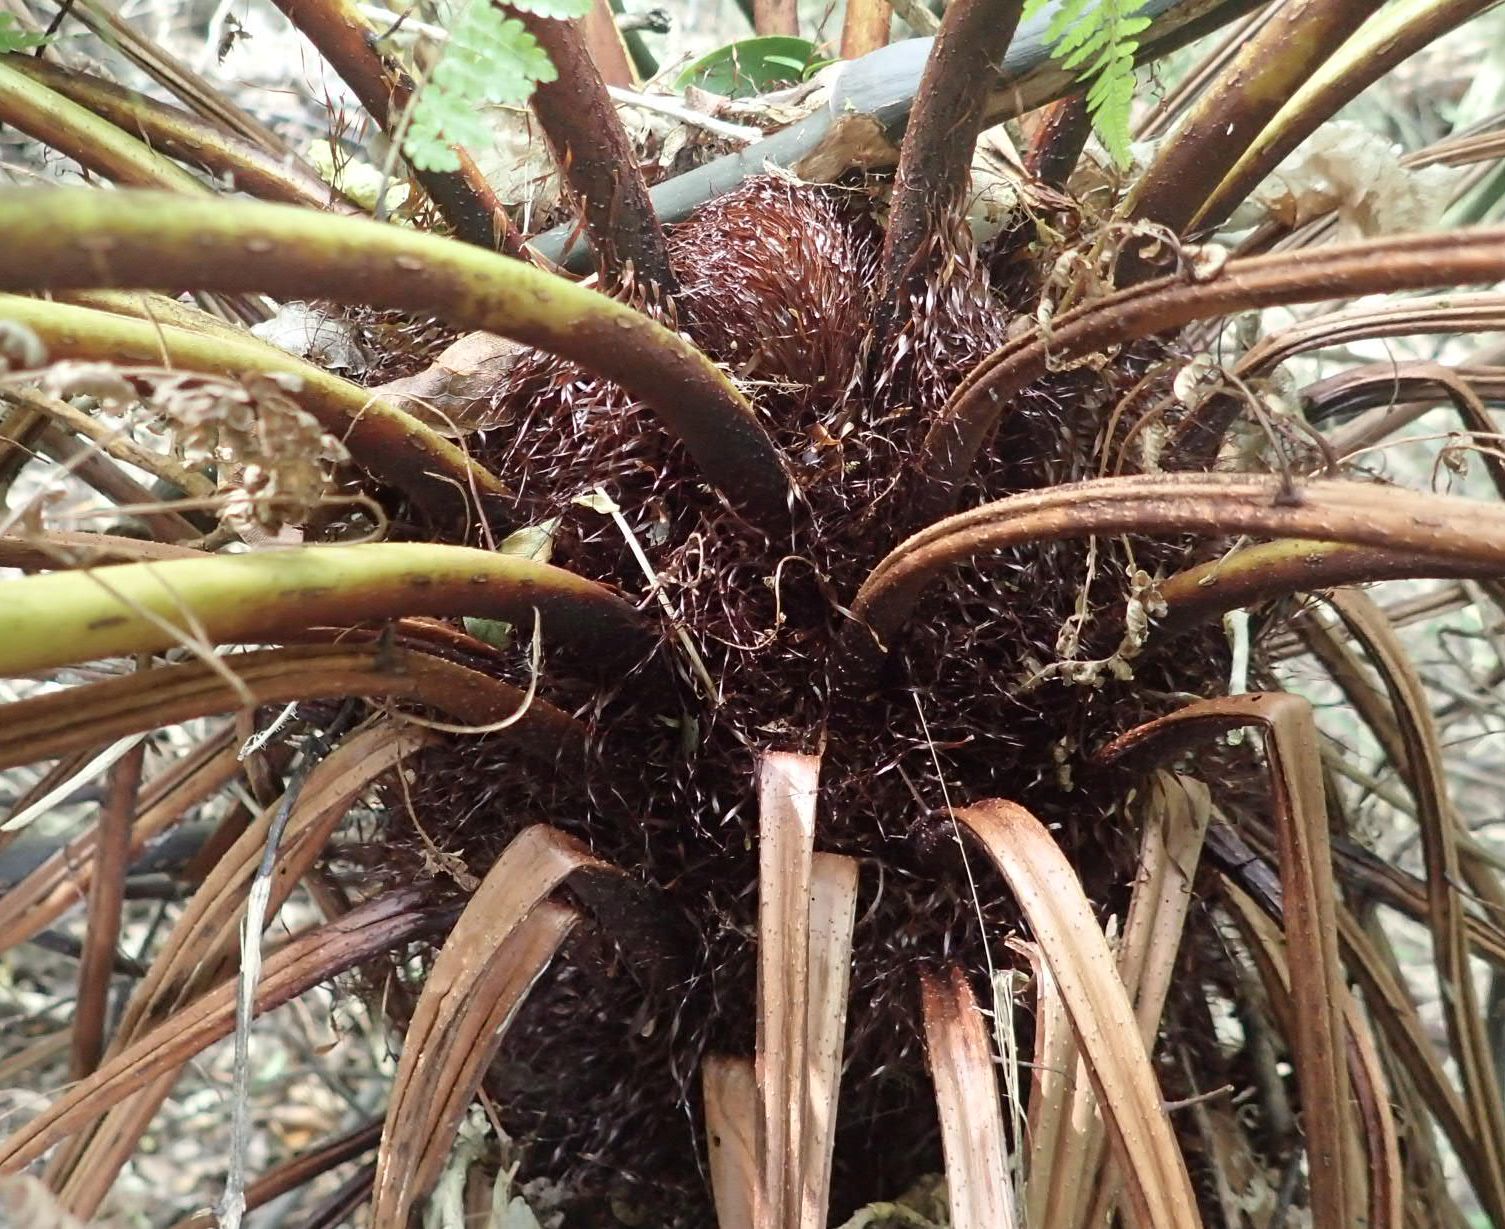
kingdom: Plantae
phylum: Tracheophyta
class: Polypodiopsida
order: Cyatheales
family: Cyatheaceae
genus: Alsophila
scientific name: Alsophila smithii
